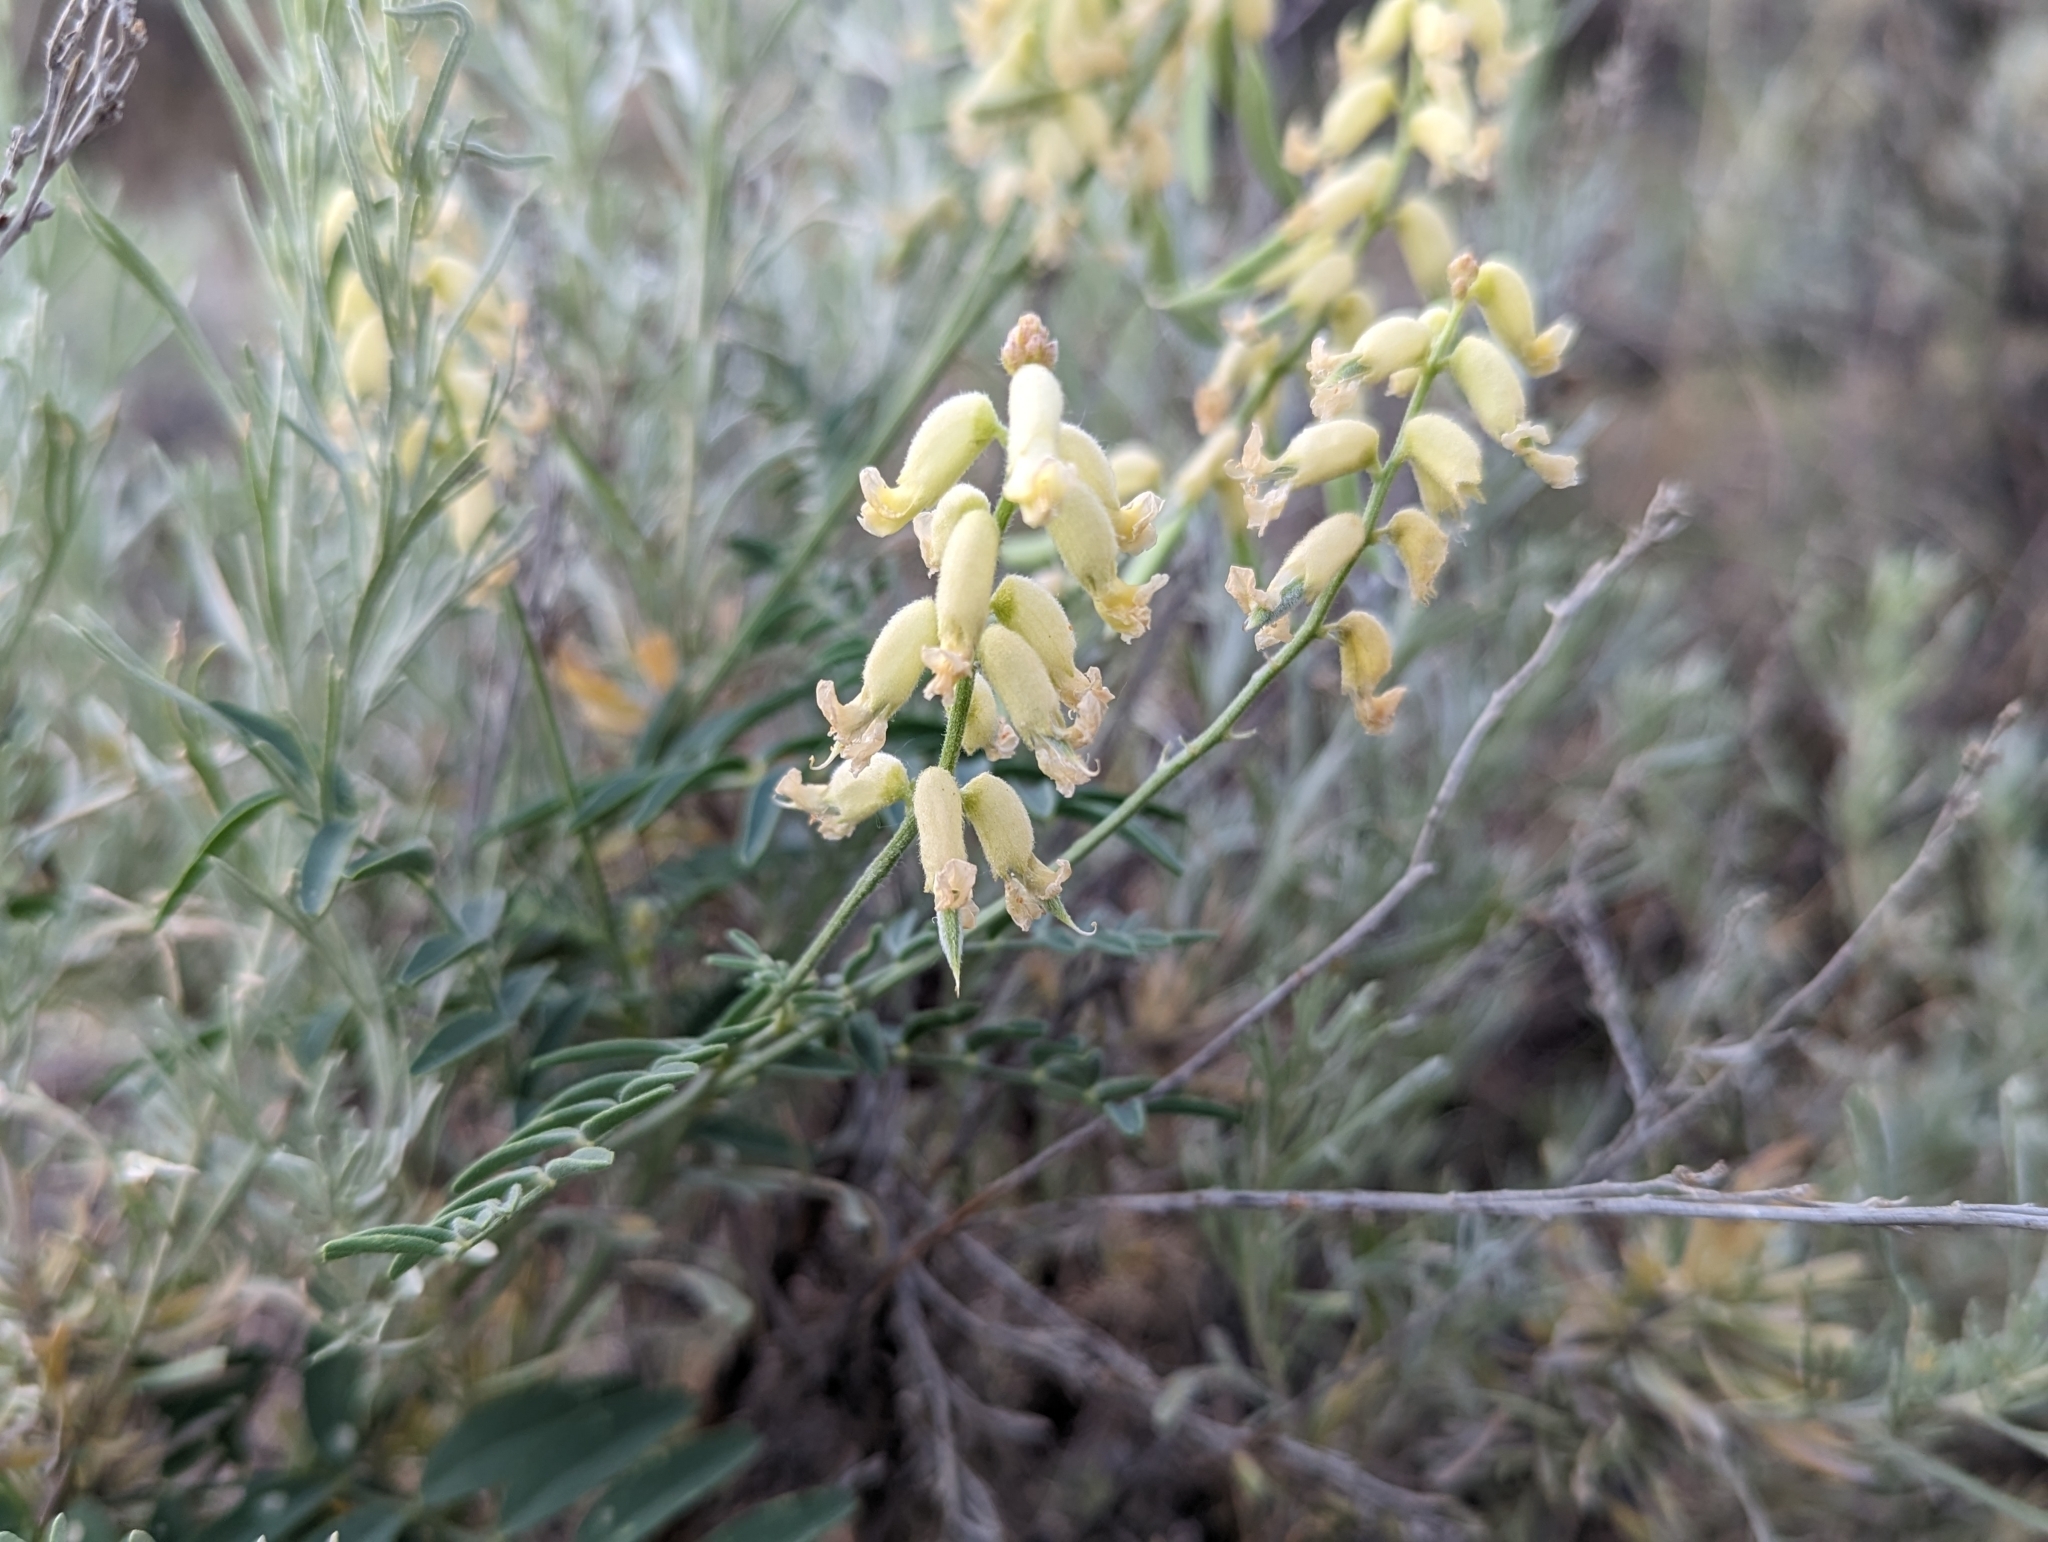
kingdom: Plantae
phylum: Tracheophyta
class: Magnoliopsida
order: Fabales
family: Fabaceae
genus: Astragalus
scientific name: Astragalus collinus
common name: Hill milk-vetch
